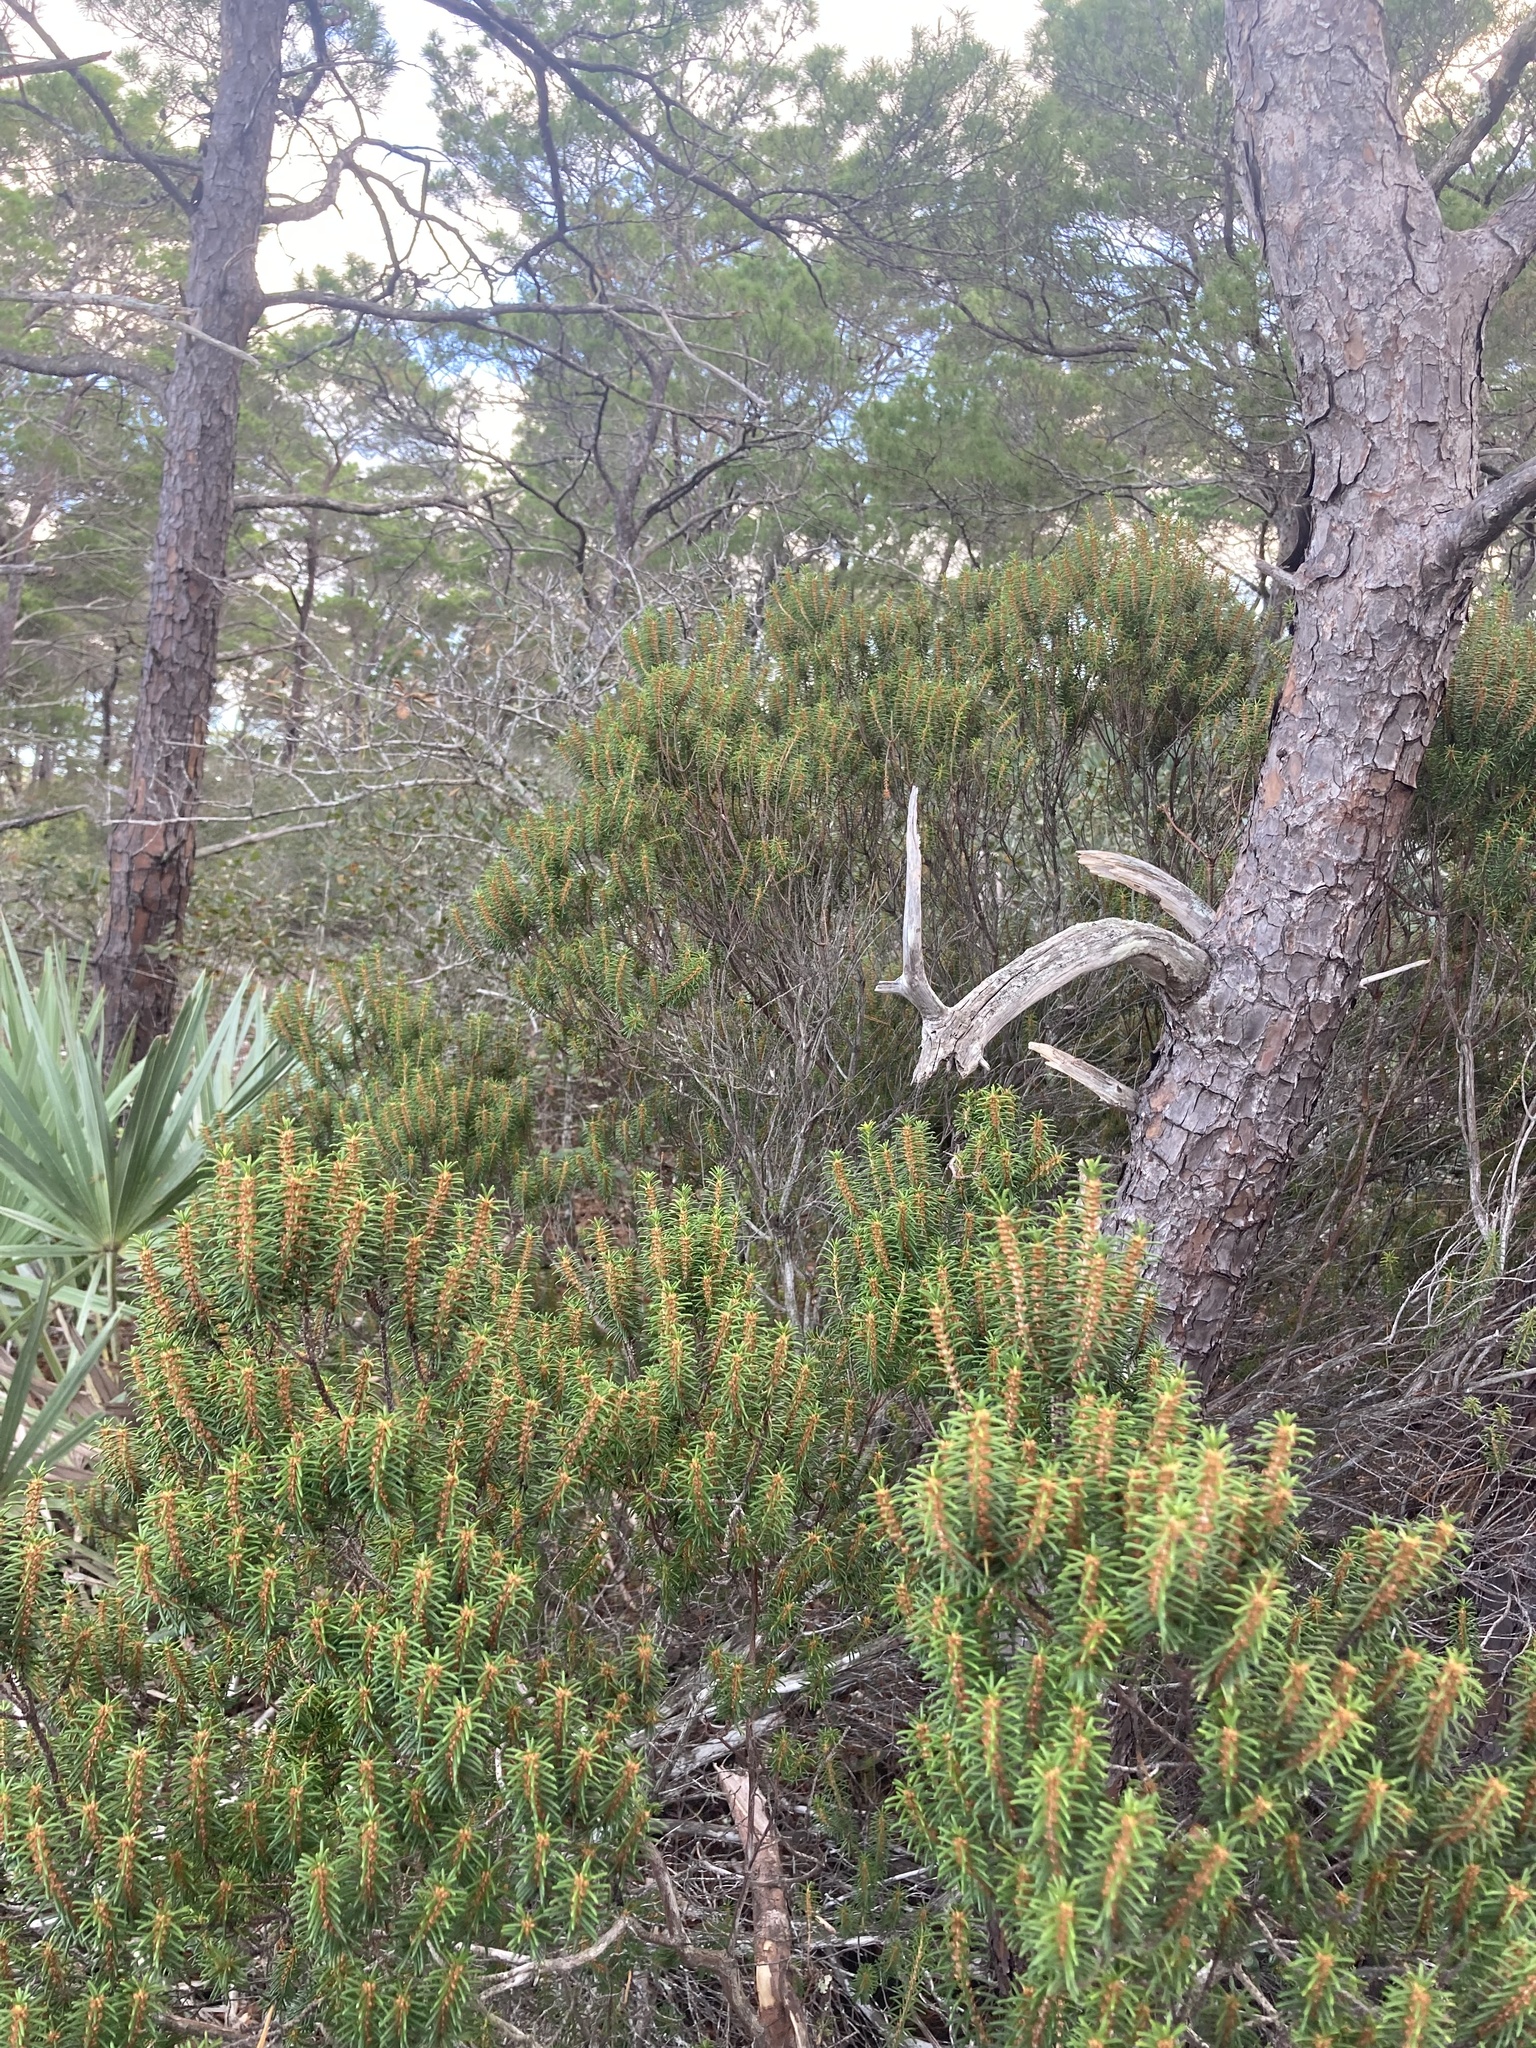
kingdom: Plantae
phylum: Tracheophyta
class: Magnoliopsida
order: Ericales
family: Ericaceae
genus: Ceratiola
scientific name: Ceratiola ericoides
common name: Sandhill-rosemary
